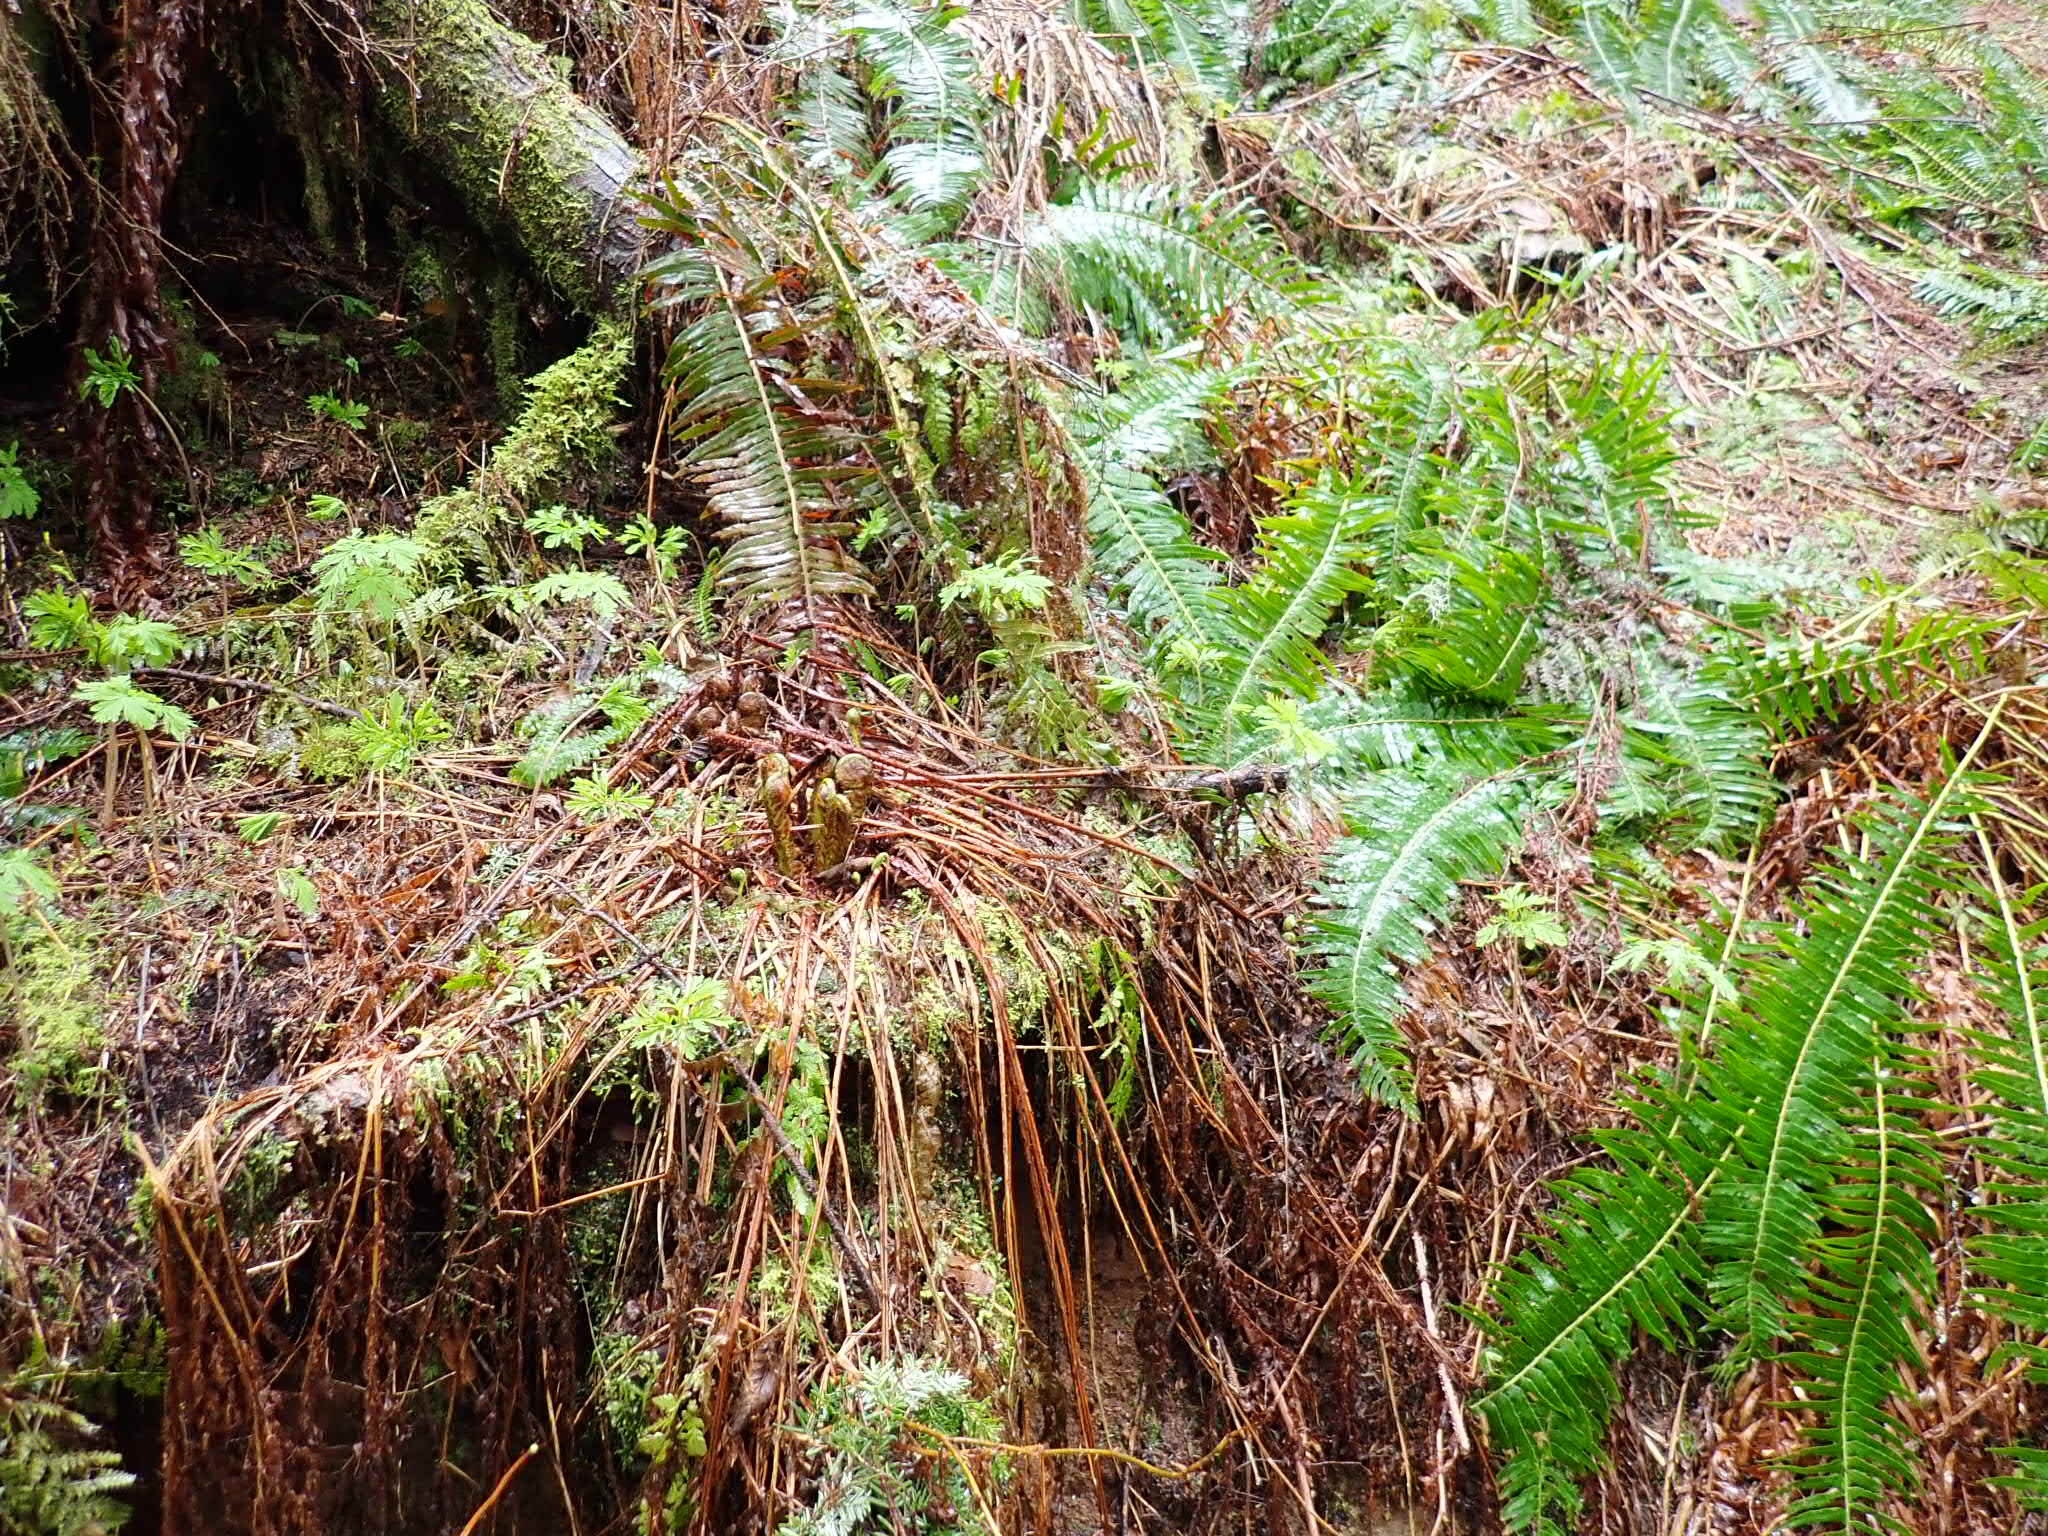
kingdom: Plantae
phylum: Tracheophyta
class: Polypodiopsida
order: Polypodiales
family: Dryopteridaceae
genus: Dryopteris
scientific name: Dryopteris expansa
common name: Northern buckler fern
